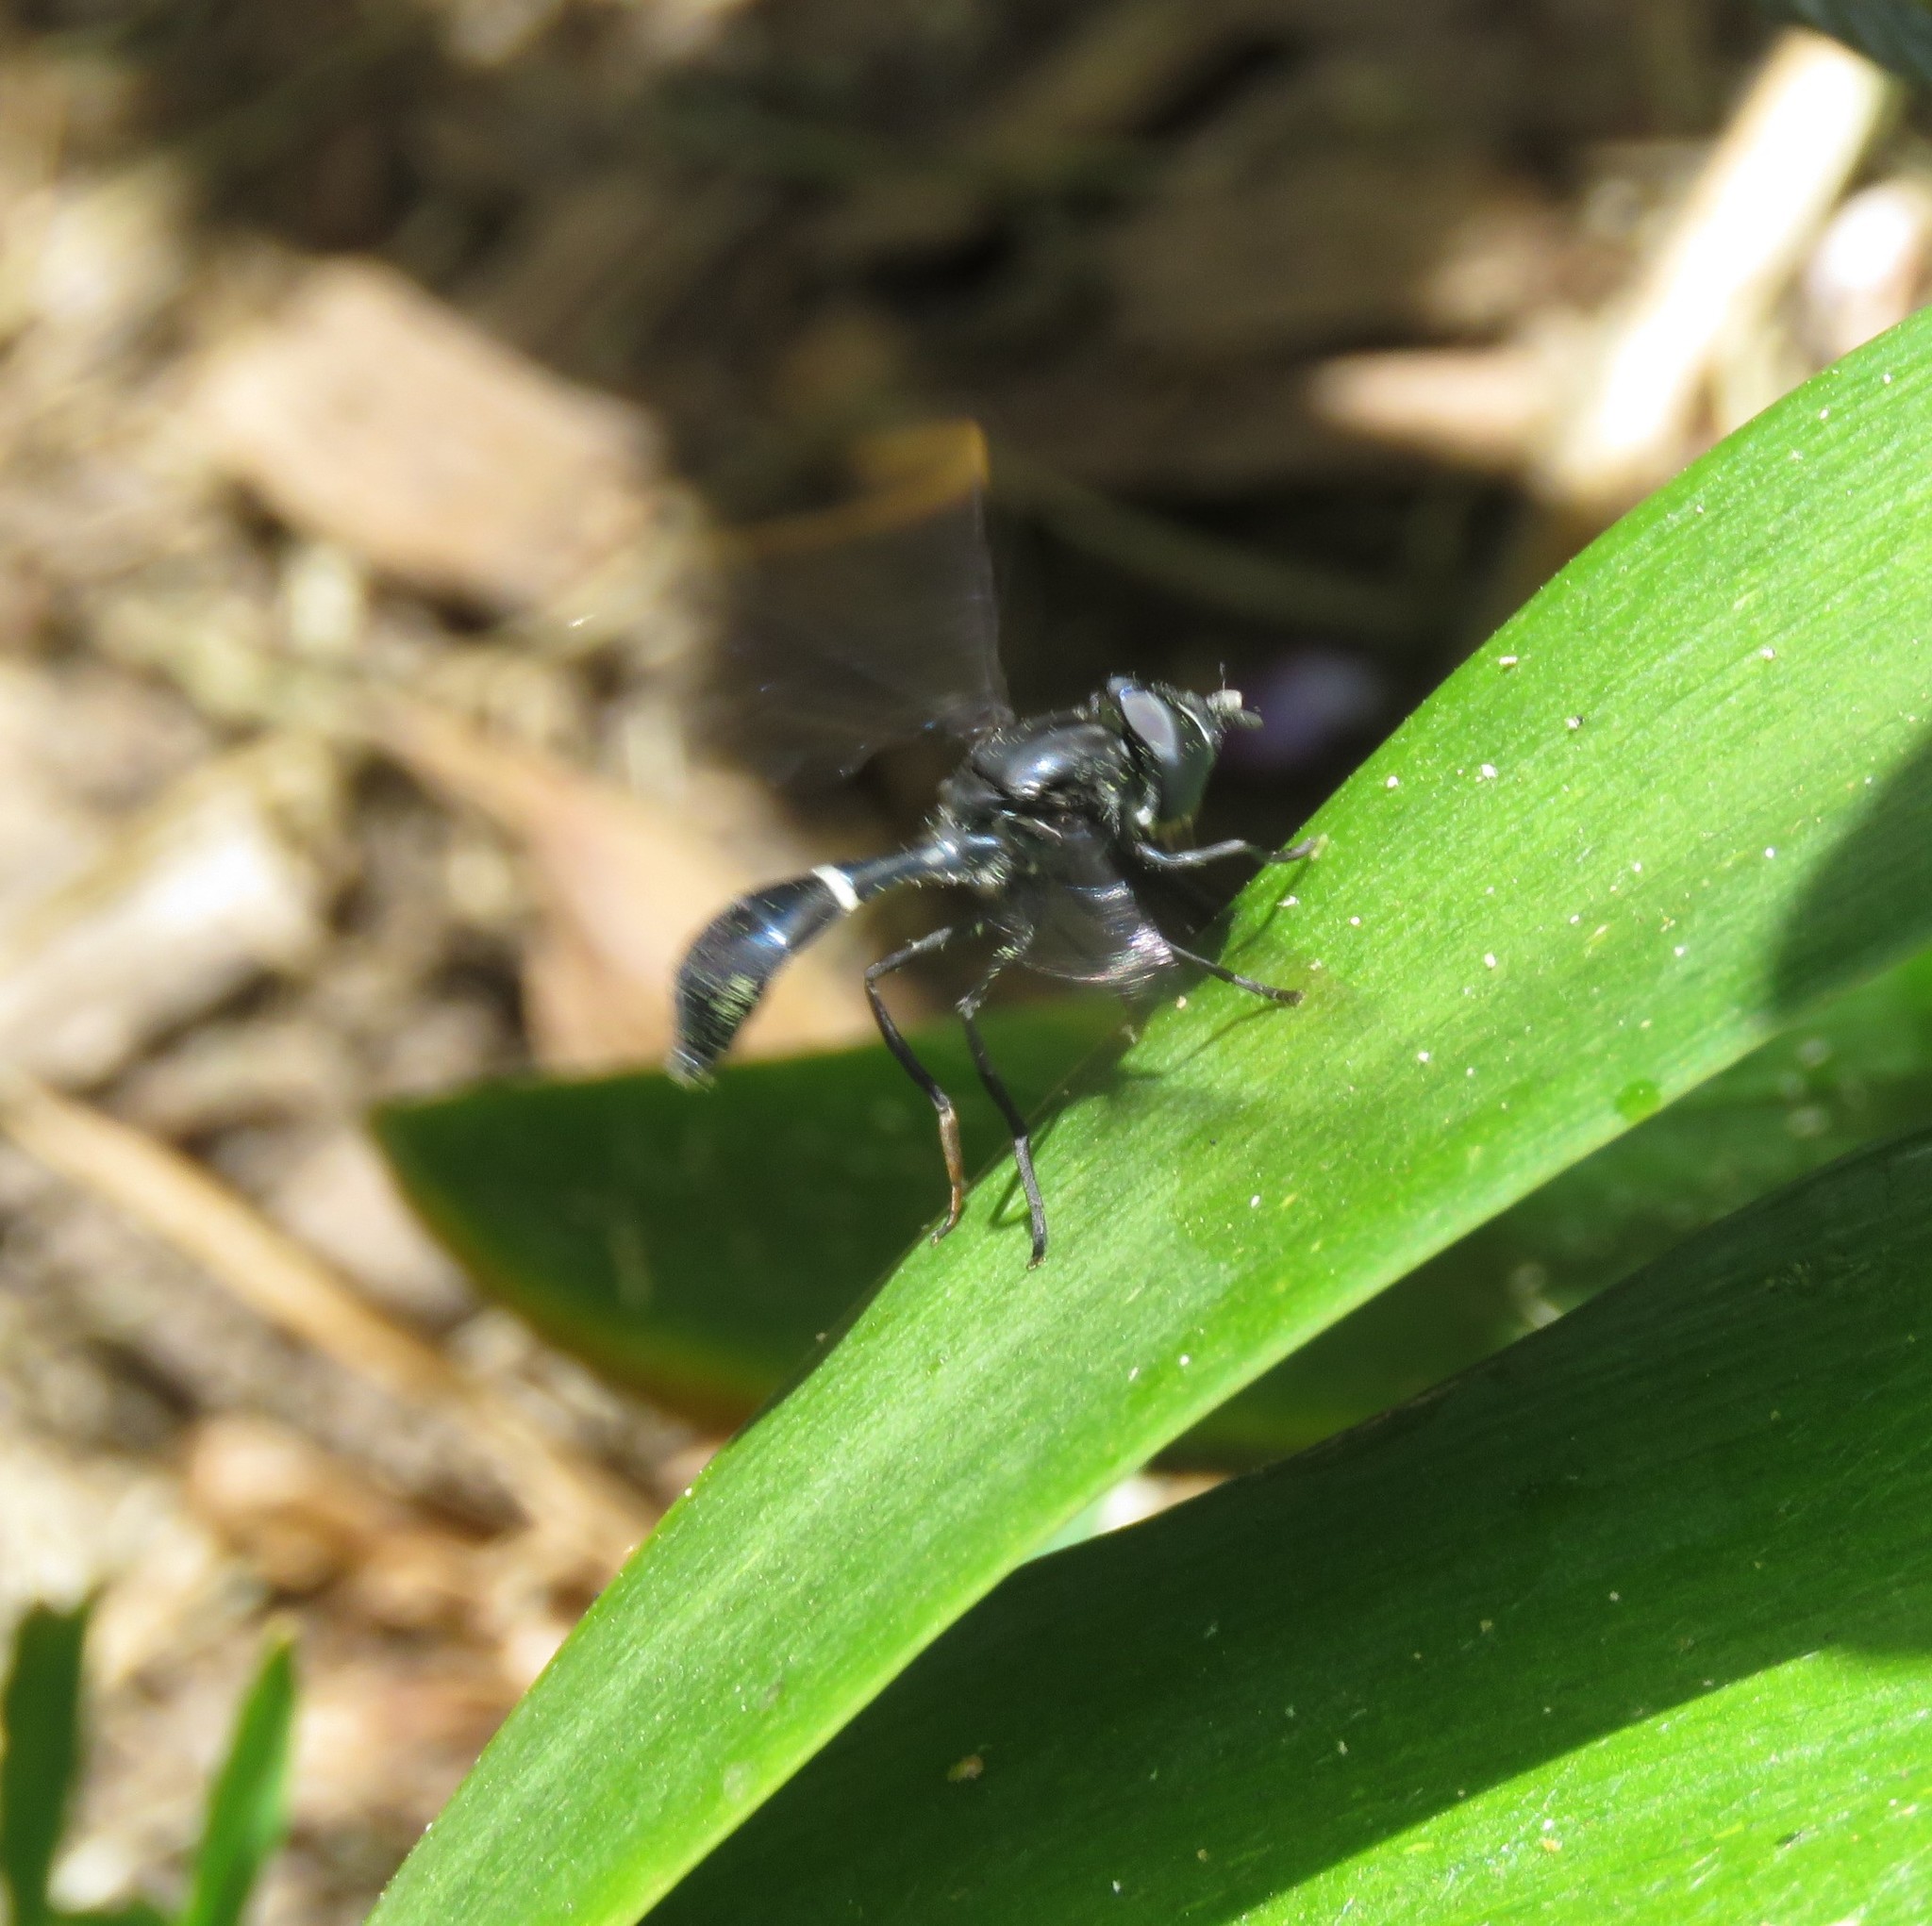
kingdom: Animalia
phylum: Arthropoda
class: Insecta
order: Diptera
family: Syrphidae
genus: Mimocalla
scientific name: Mimocalla giganteus
